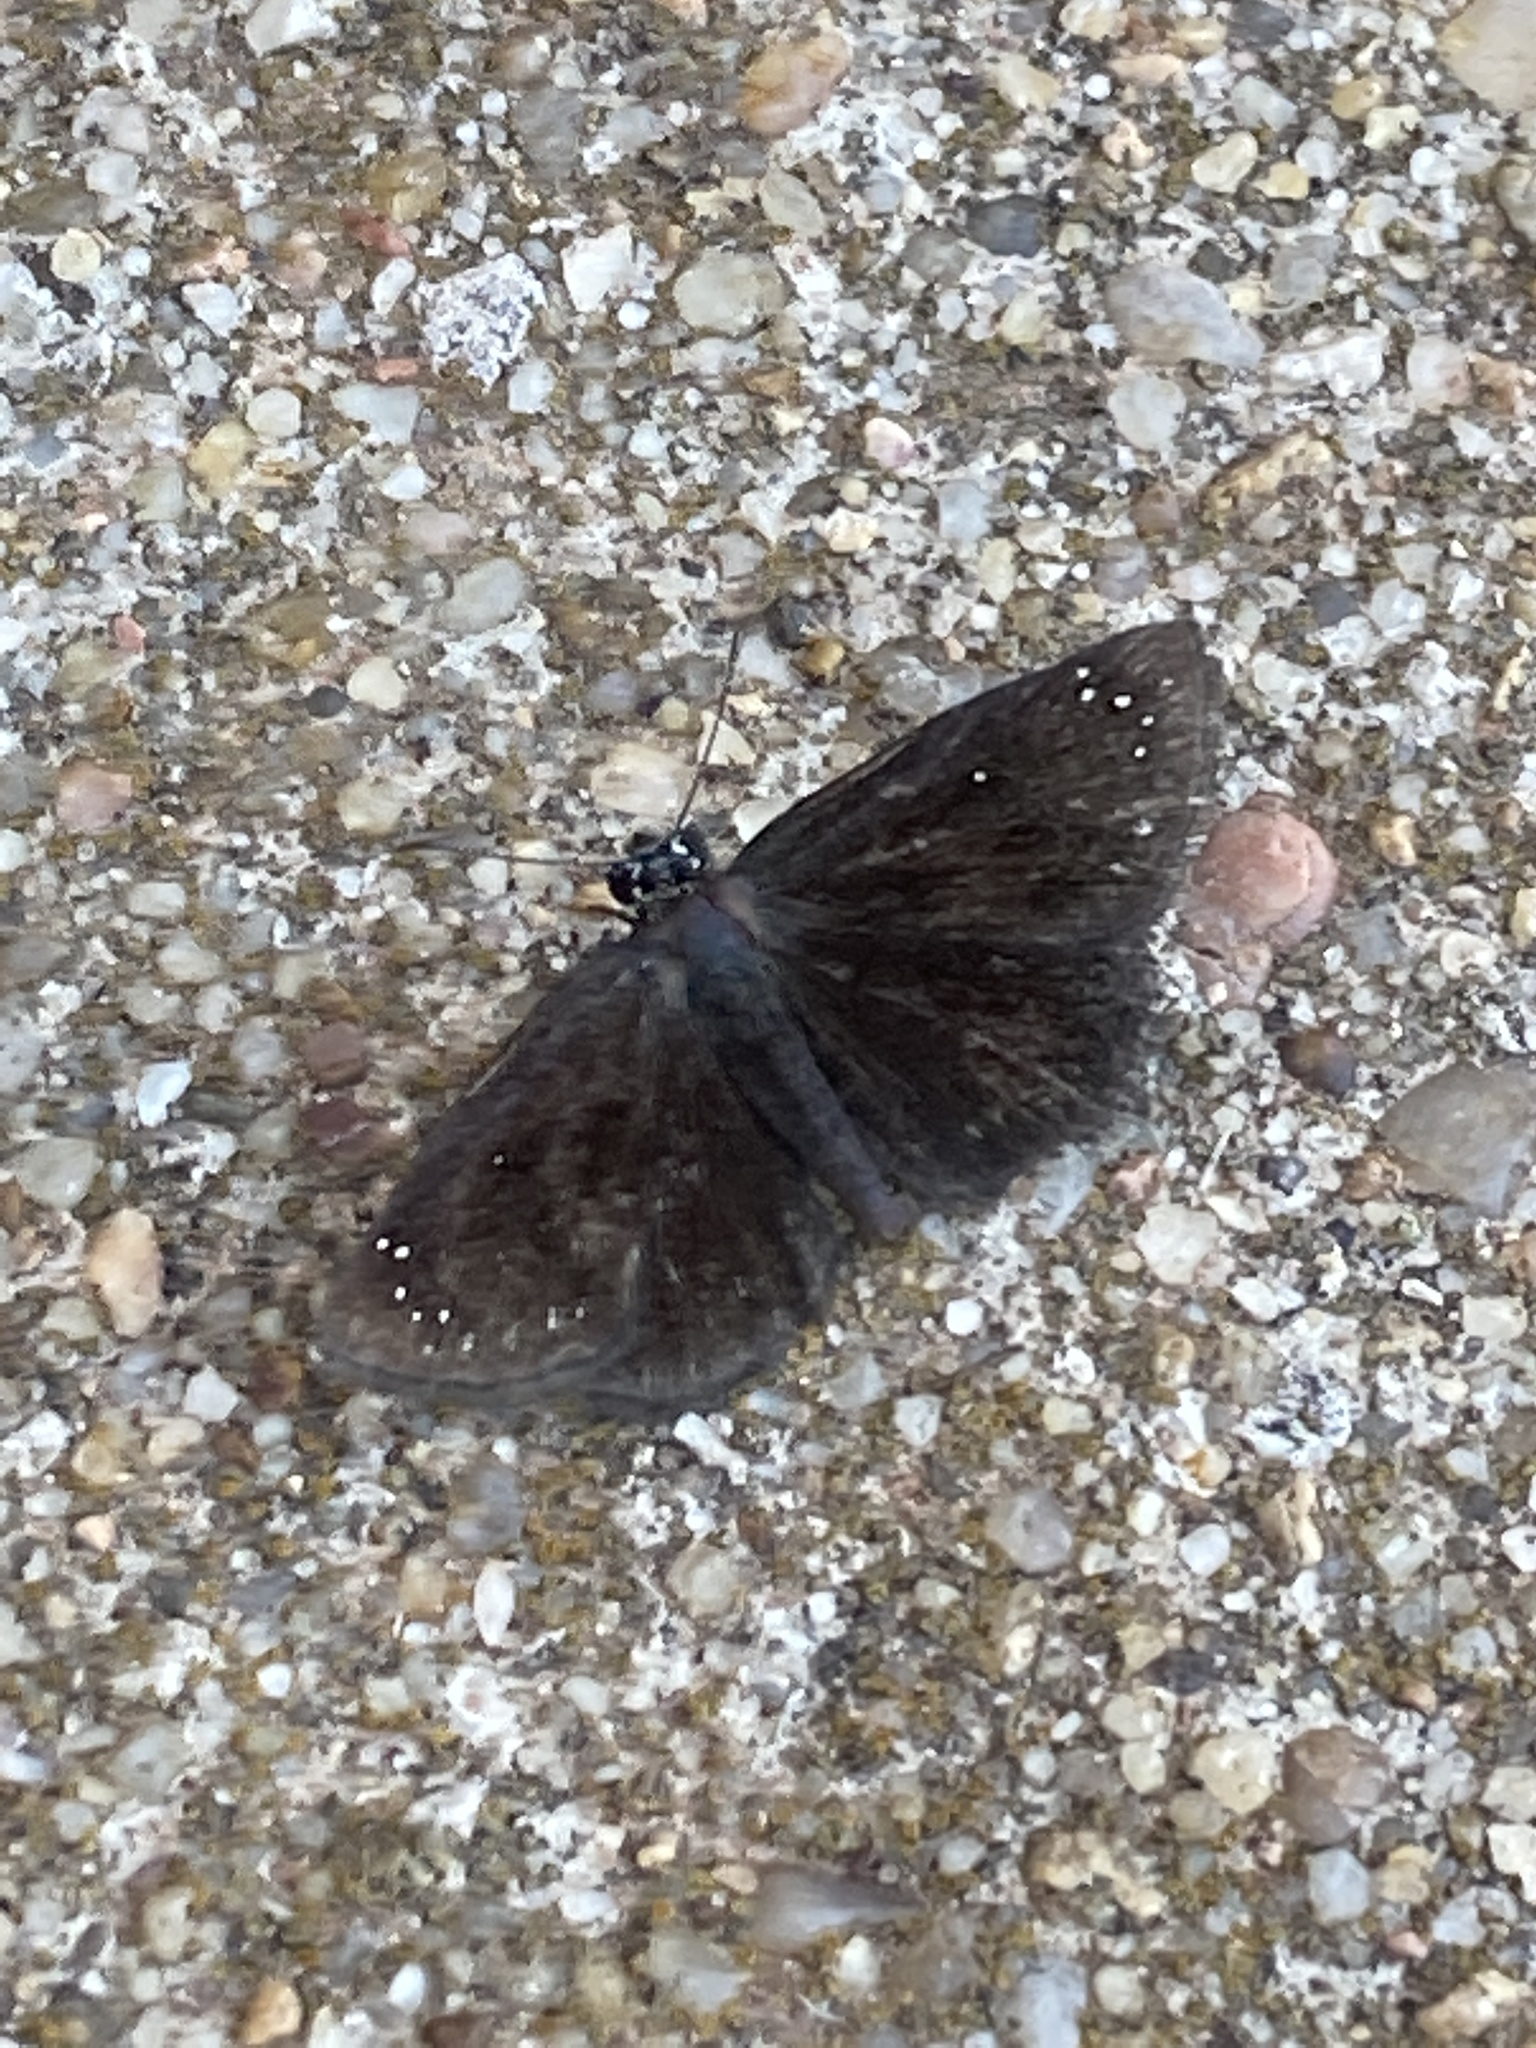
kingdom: Animalia
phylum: Arthropoda
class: Insecta
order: Lepidoptera
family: Hesperiidae
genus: Pholisora
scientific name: Pholisora catullus
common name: Common sootywing
